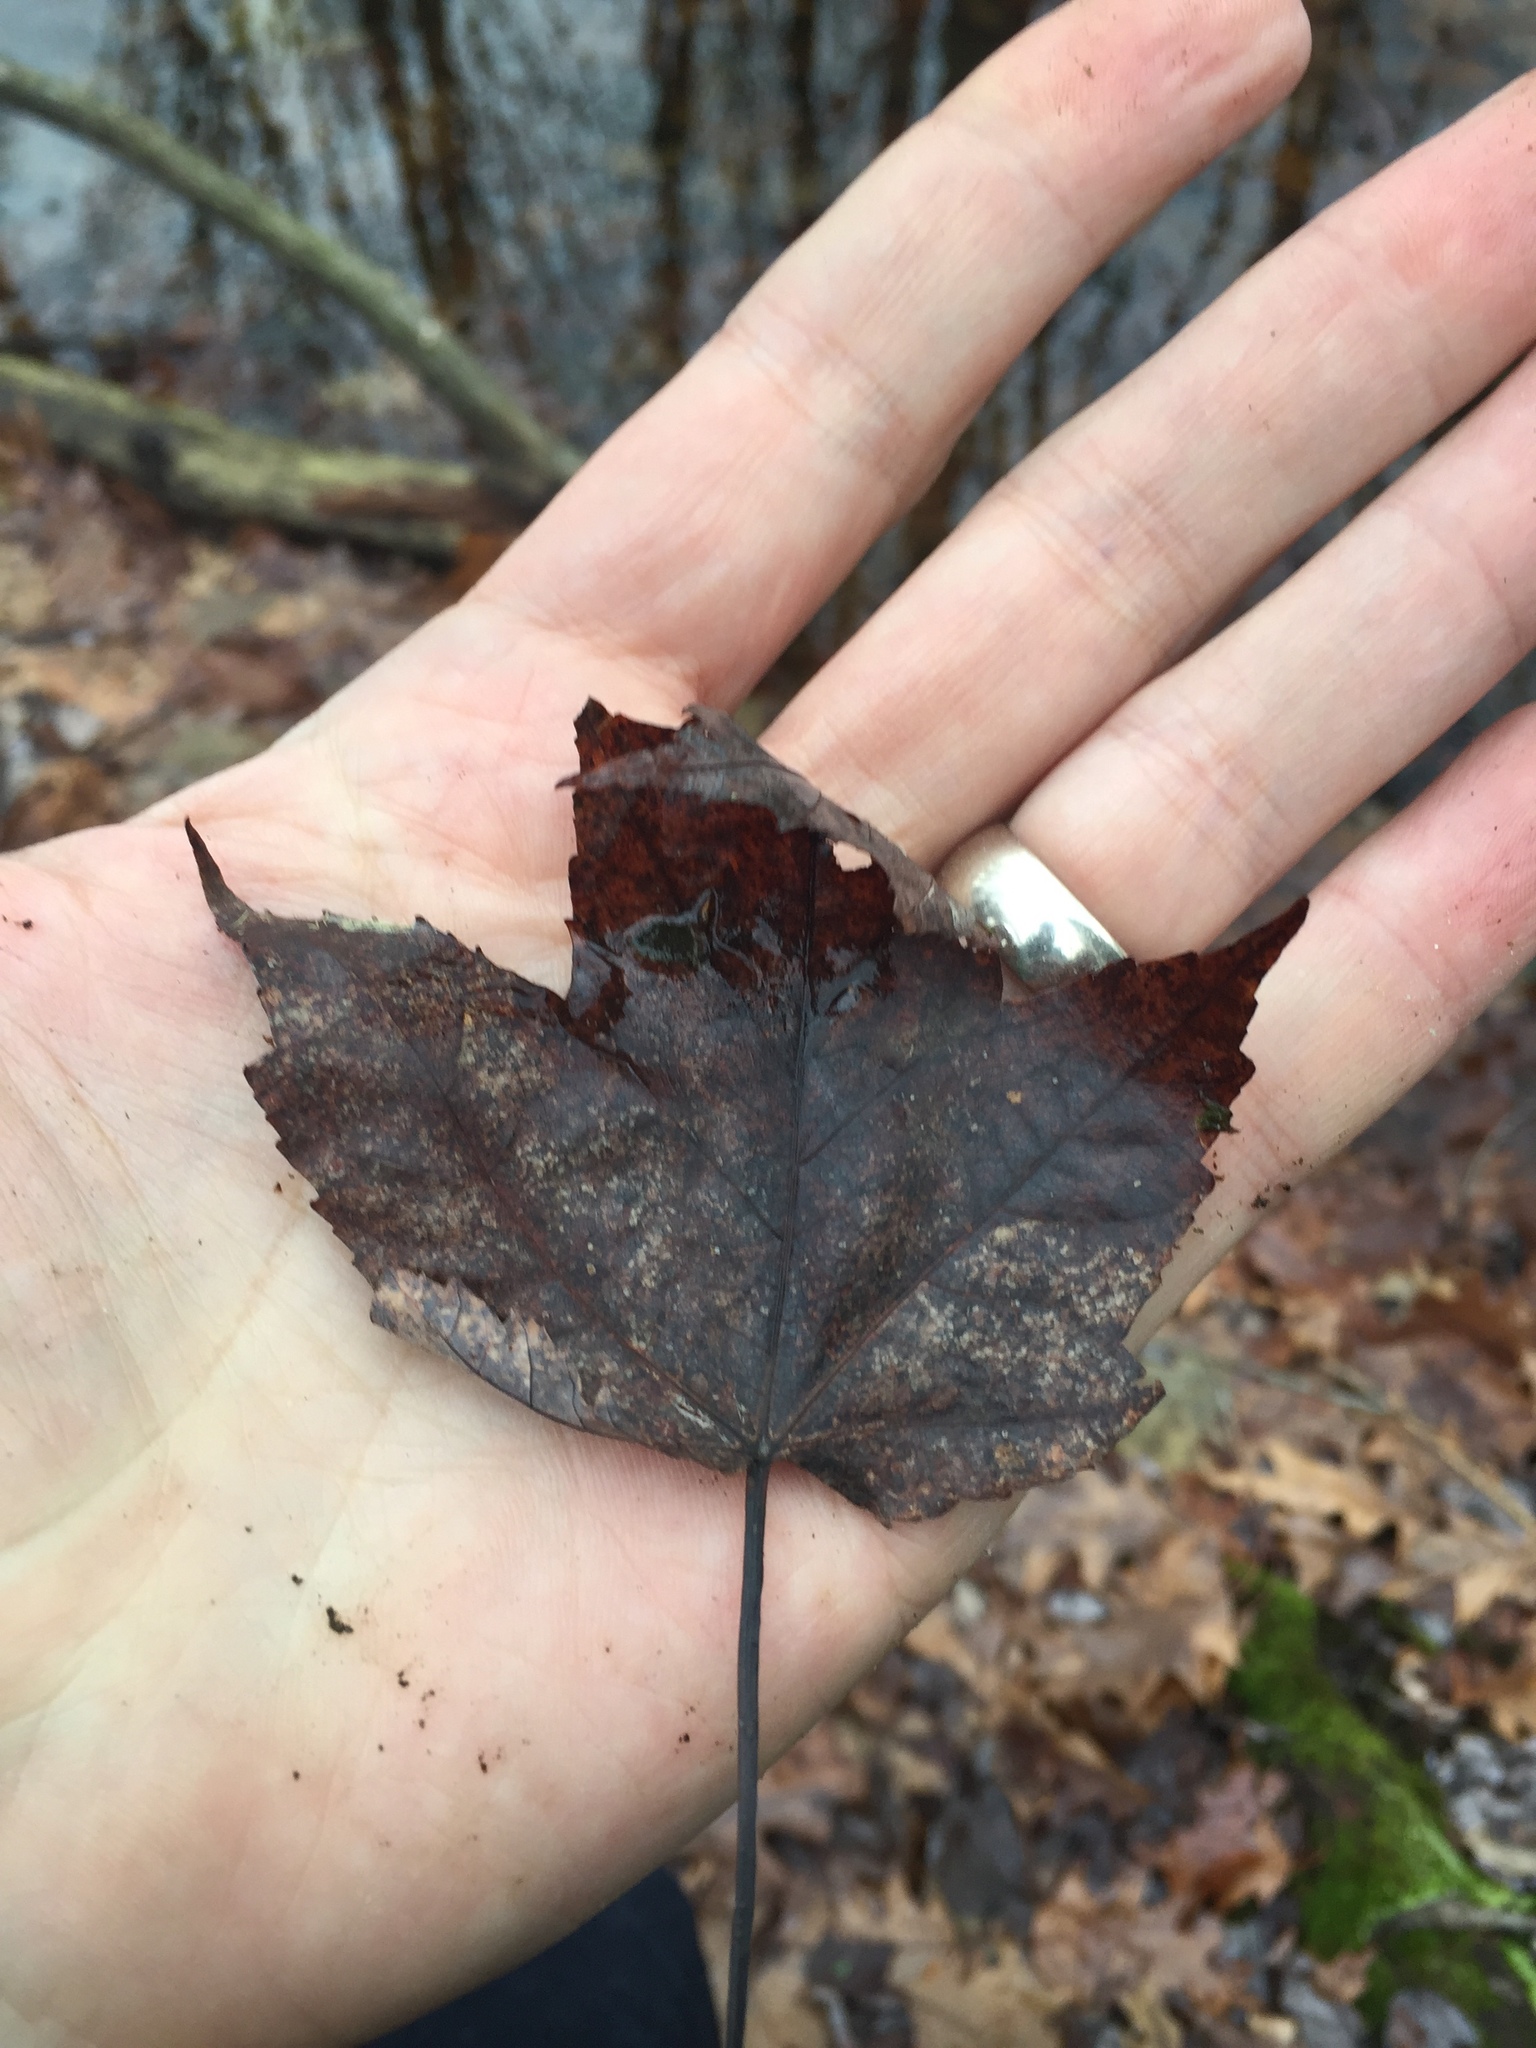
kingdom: Plantae
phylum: Tracheophyta
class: Magnoliopsida
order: Sapindales
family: Sapindaceae
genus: Acer
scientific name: Acer rubrum
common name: Red maple
